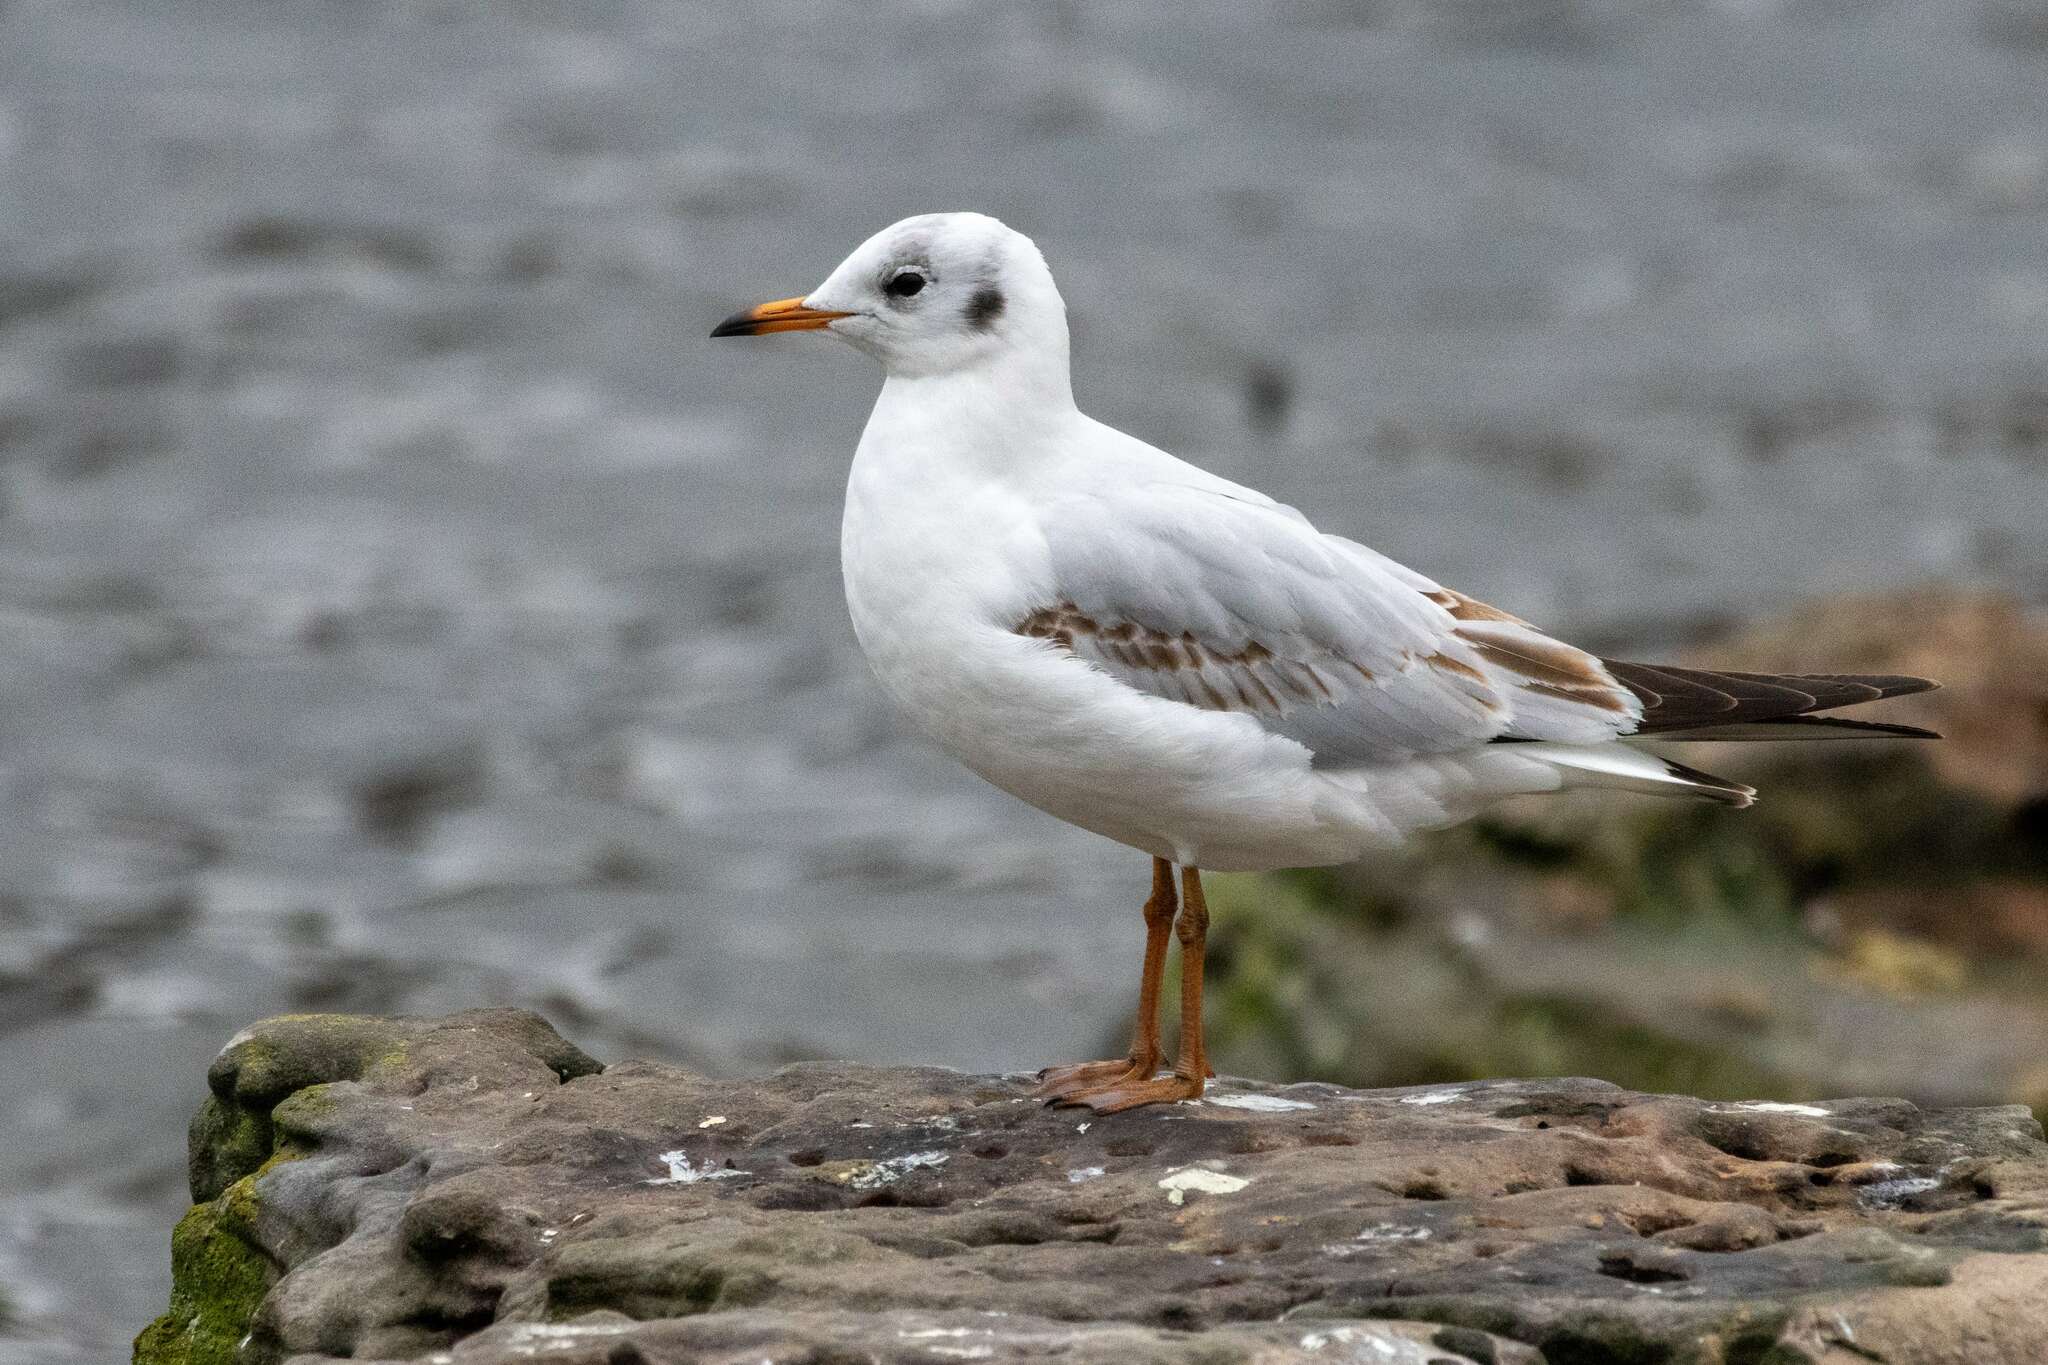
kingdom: Animalia
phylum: Chordata
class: Aves
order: Charadriiformes
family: Laridae
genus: Chroicocephalus
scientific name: Chroicocephalus ridibundus
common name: Black-headed gull
